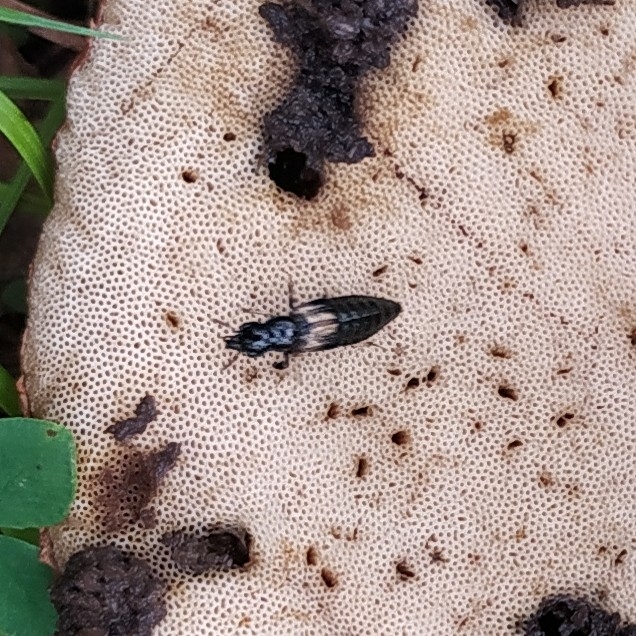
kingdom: Animalia
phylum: Arthropoda
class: Insecta
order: Coleoptera
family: Staphylinidae
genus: Oxyporus
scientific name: Oxyporus maxillosus
